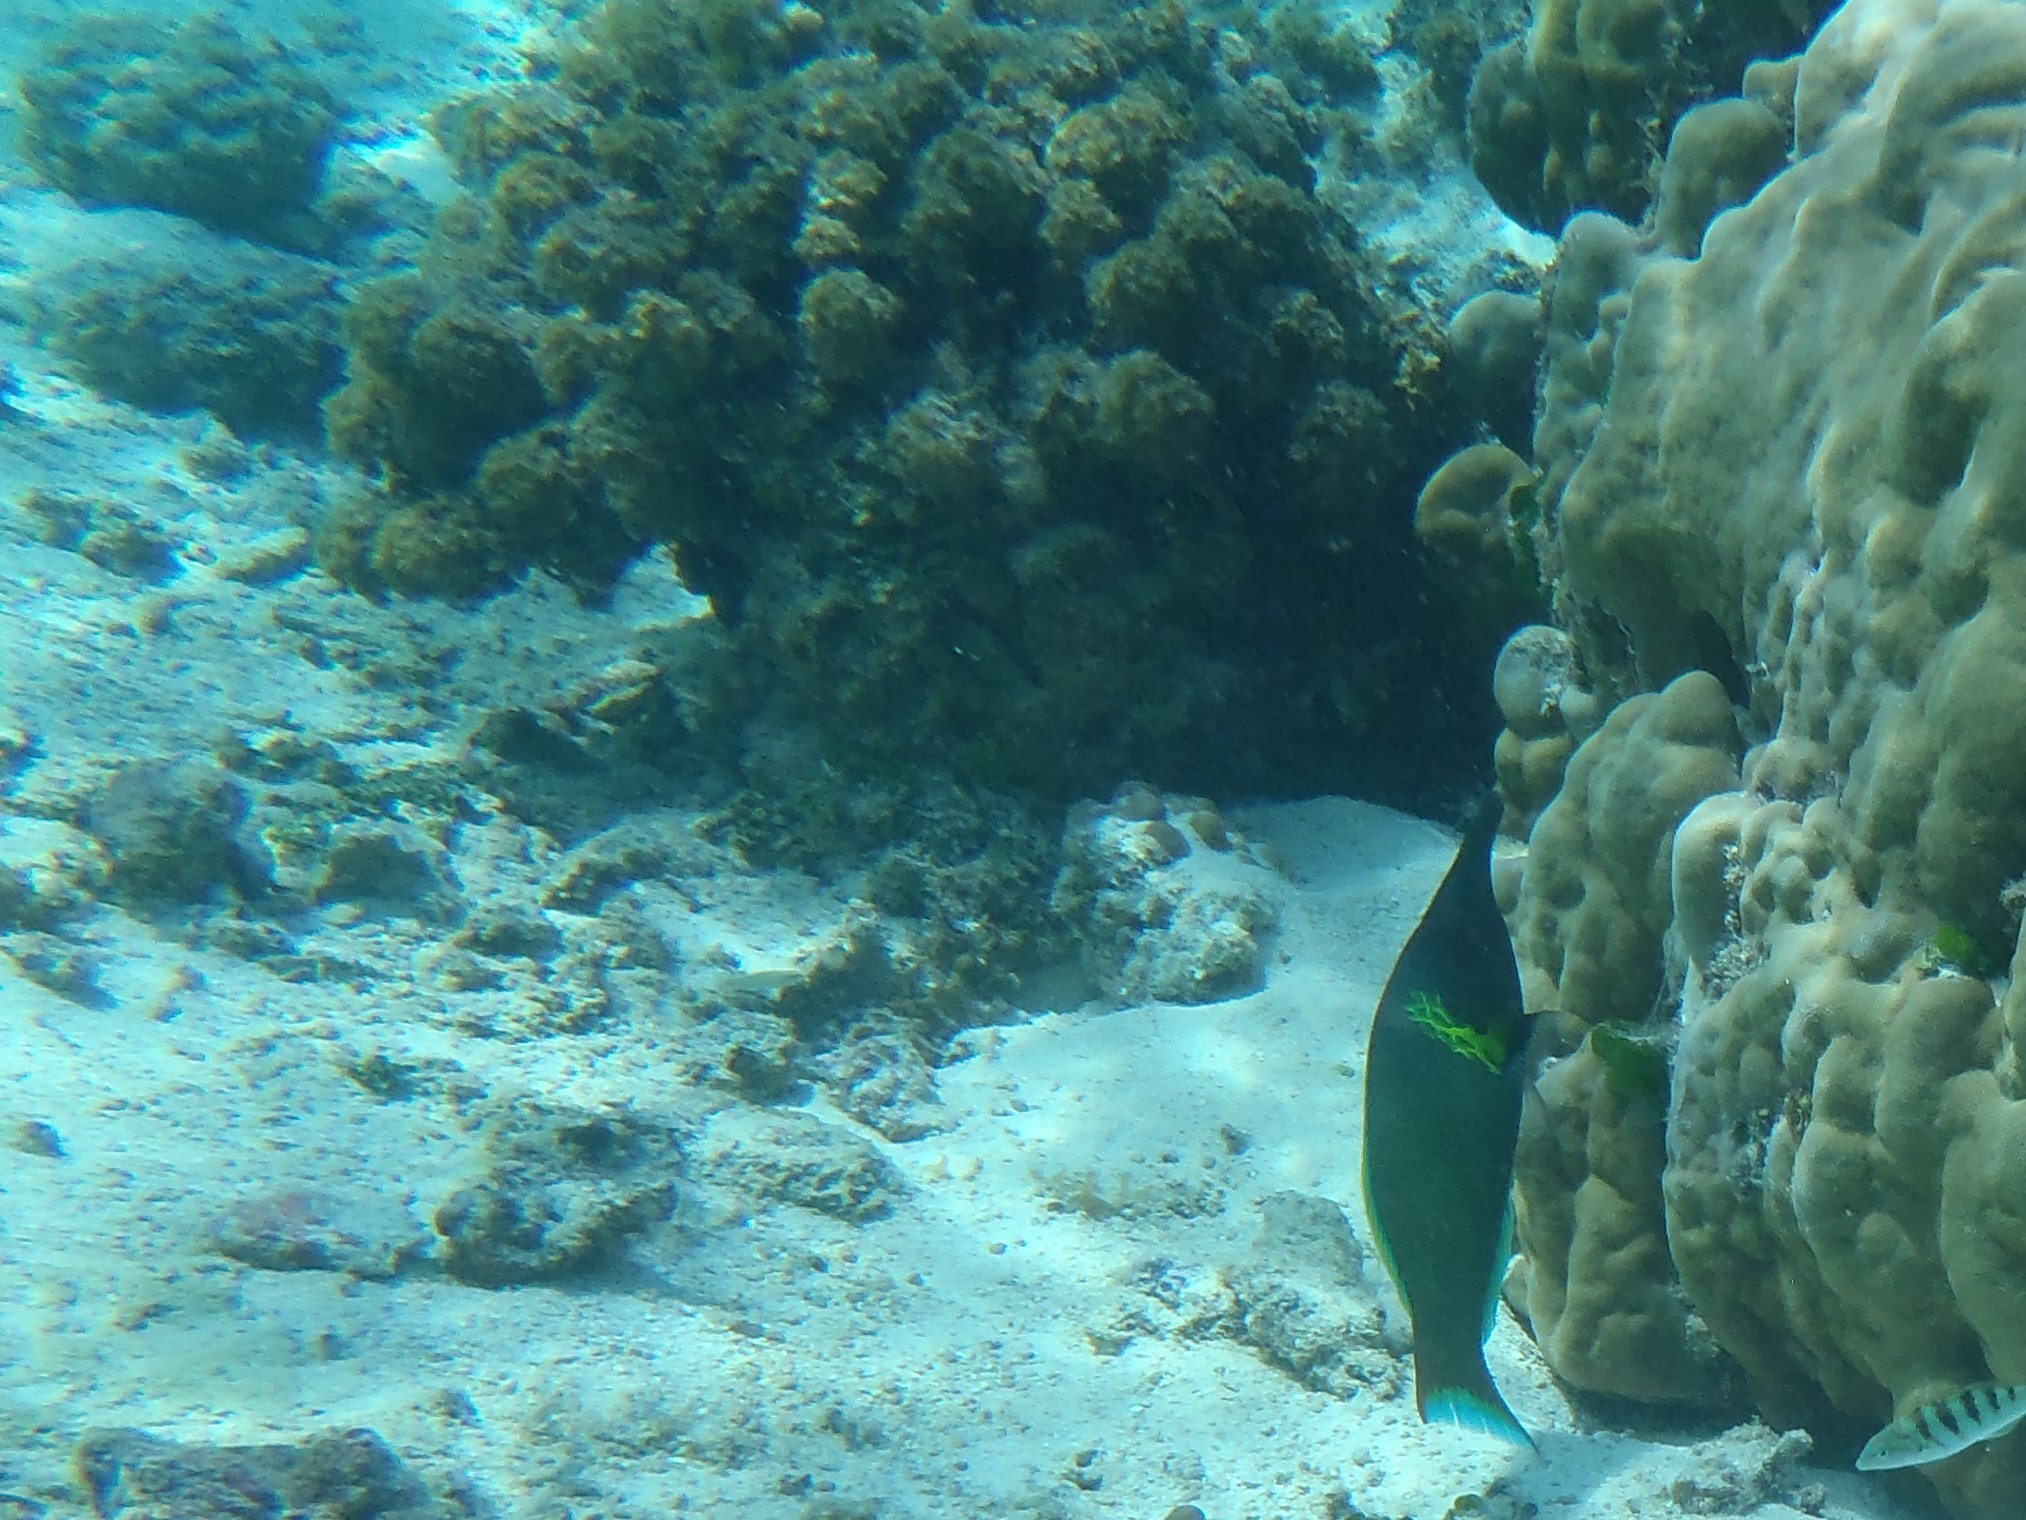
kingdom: Animalia
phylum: Chordata
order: Perciformes
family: Labridae
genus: Gomphosus
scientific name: Gomphosus varius
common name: Bird wrasse
